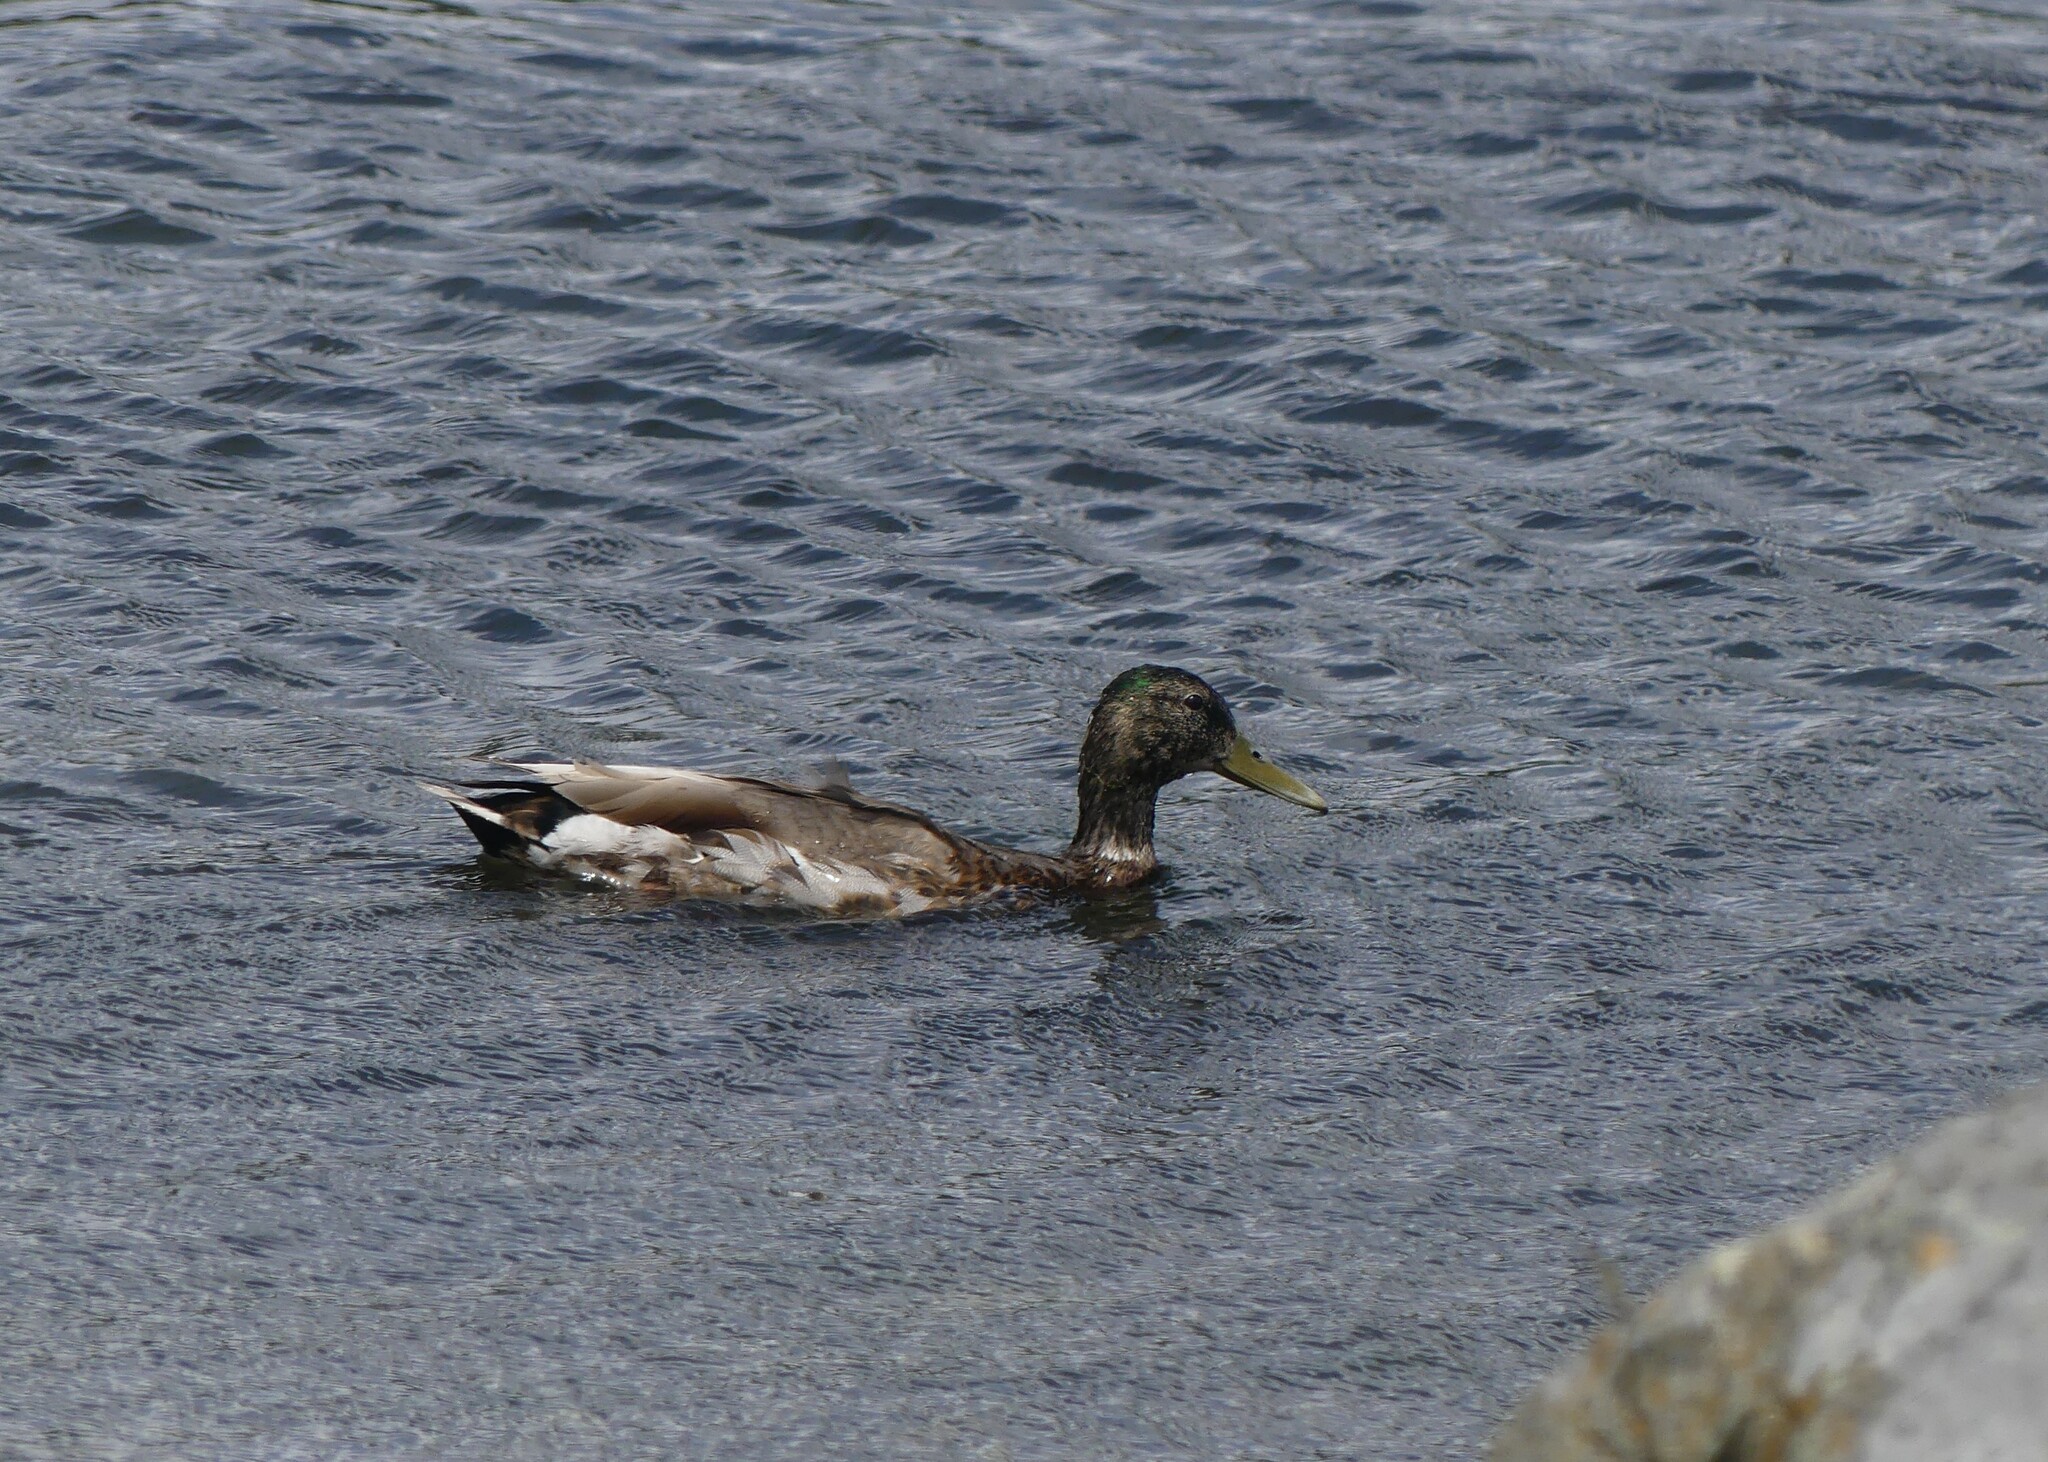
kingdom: Animalia
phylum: Chordata
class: Aves
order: Anseriformes
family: Anatidae
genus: Anas
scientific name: Anas platyrhynchos
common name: Mallard
